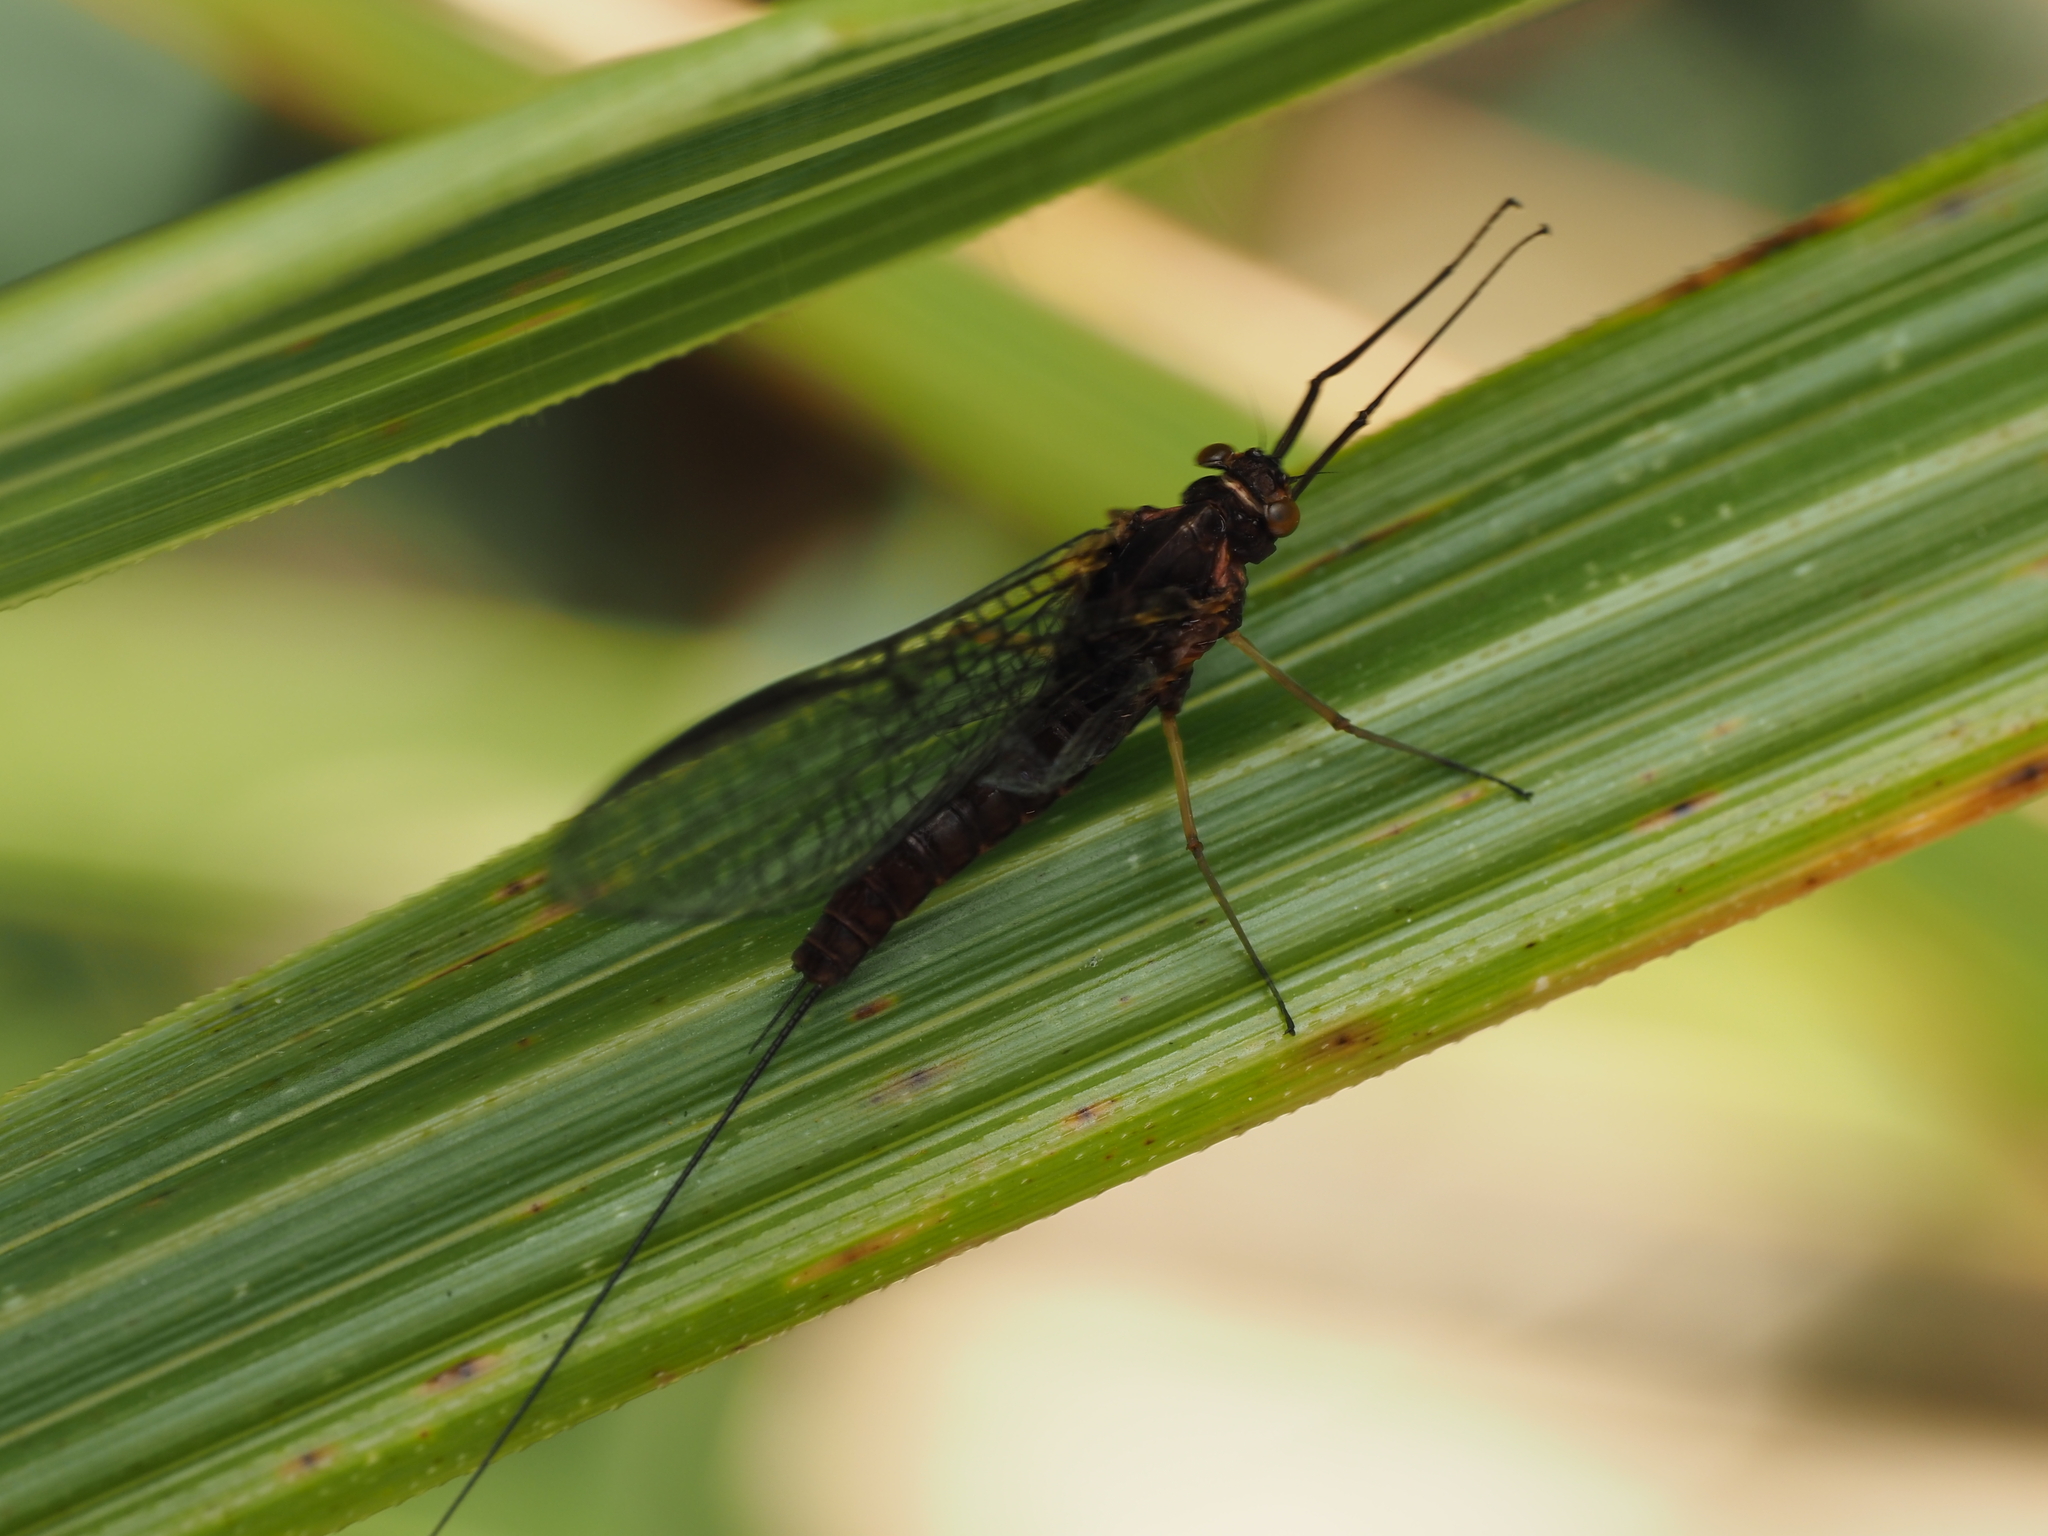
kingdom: Animalia
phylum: Arthropoda
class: Insecta
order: Ephemeroptera
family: Coloburiscidae
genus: Coloburiscus
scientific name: Coloburiscus humeralis
